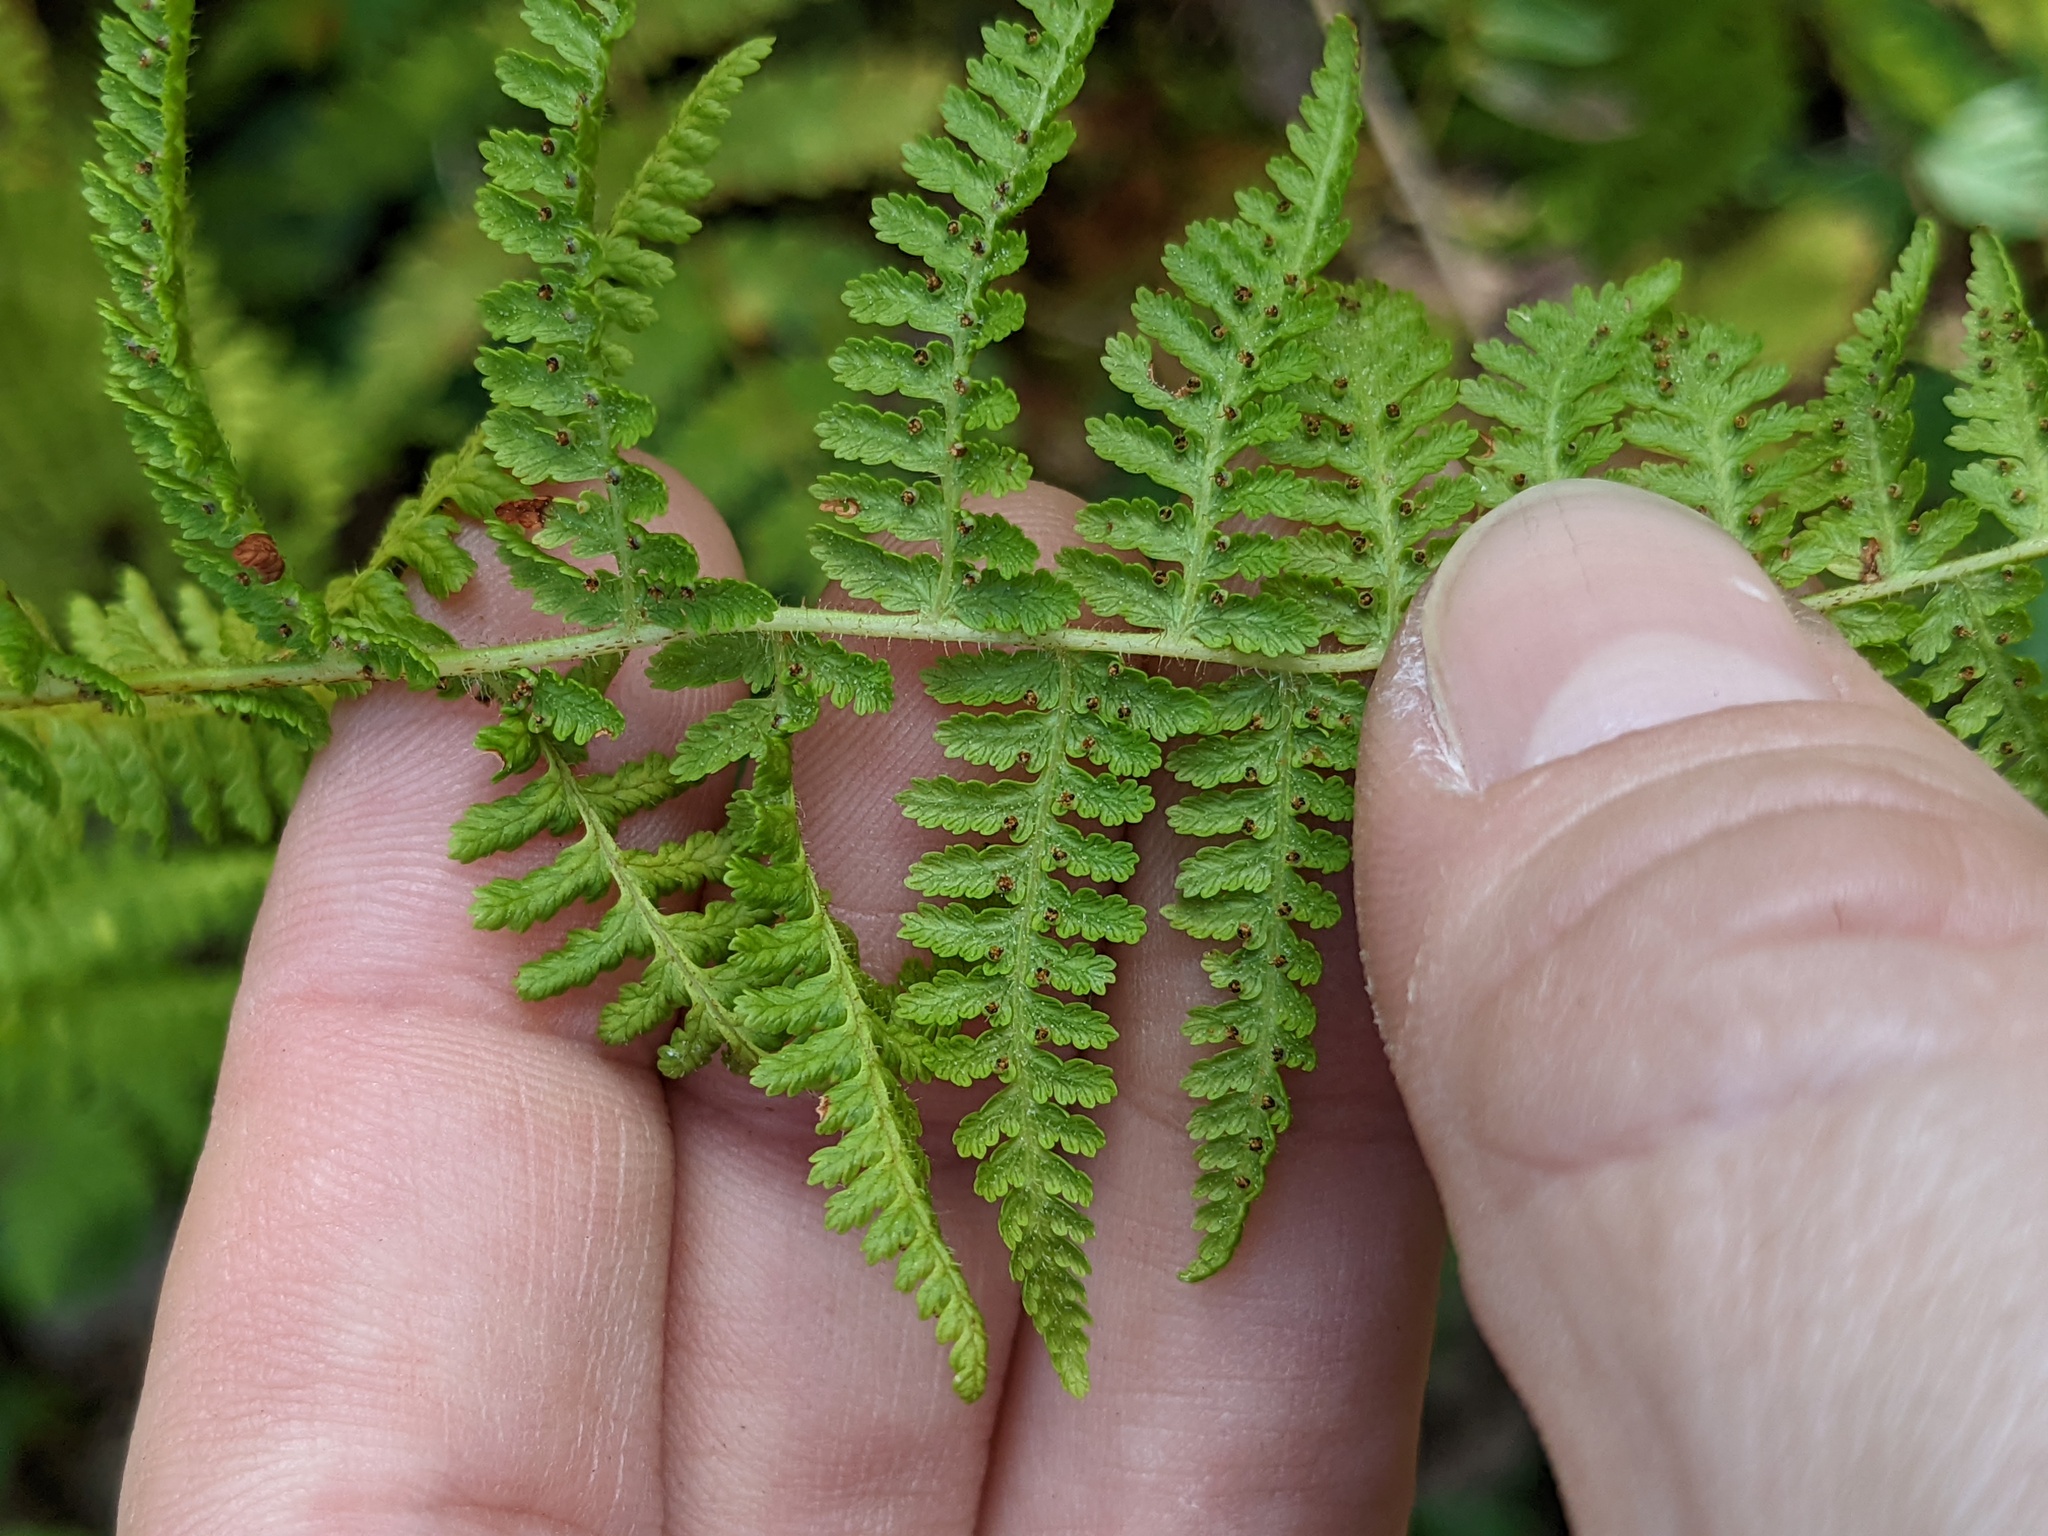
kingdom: Plantae
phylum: Tracheophyta
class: Polypodiopsida
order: Polypodiales
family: Dennstaedtiaceae
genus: Sitobolium
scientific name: Sitobolium punctilobum
